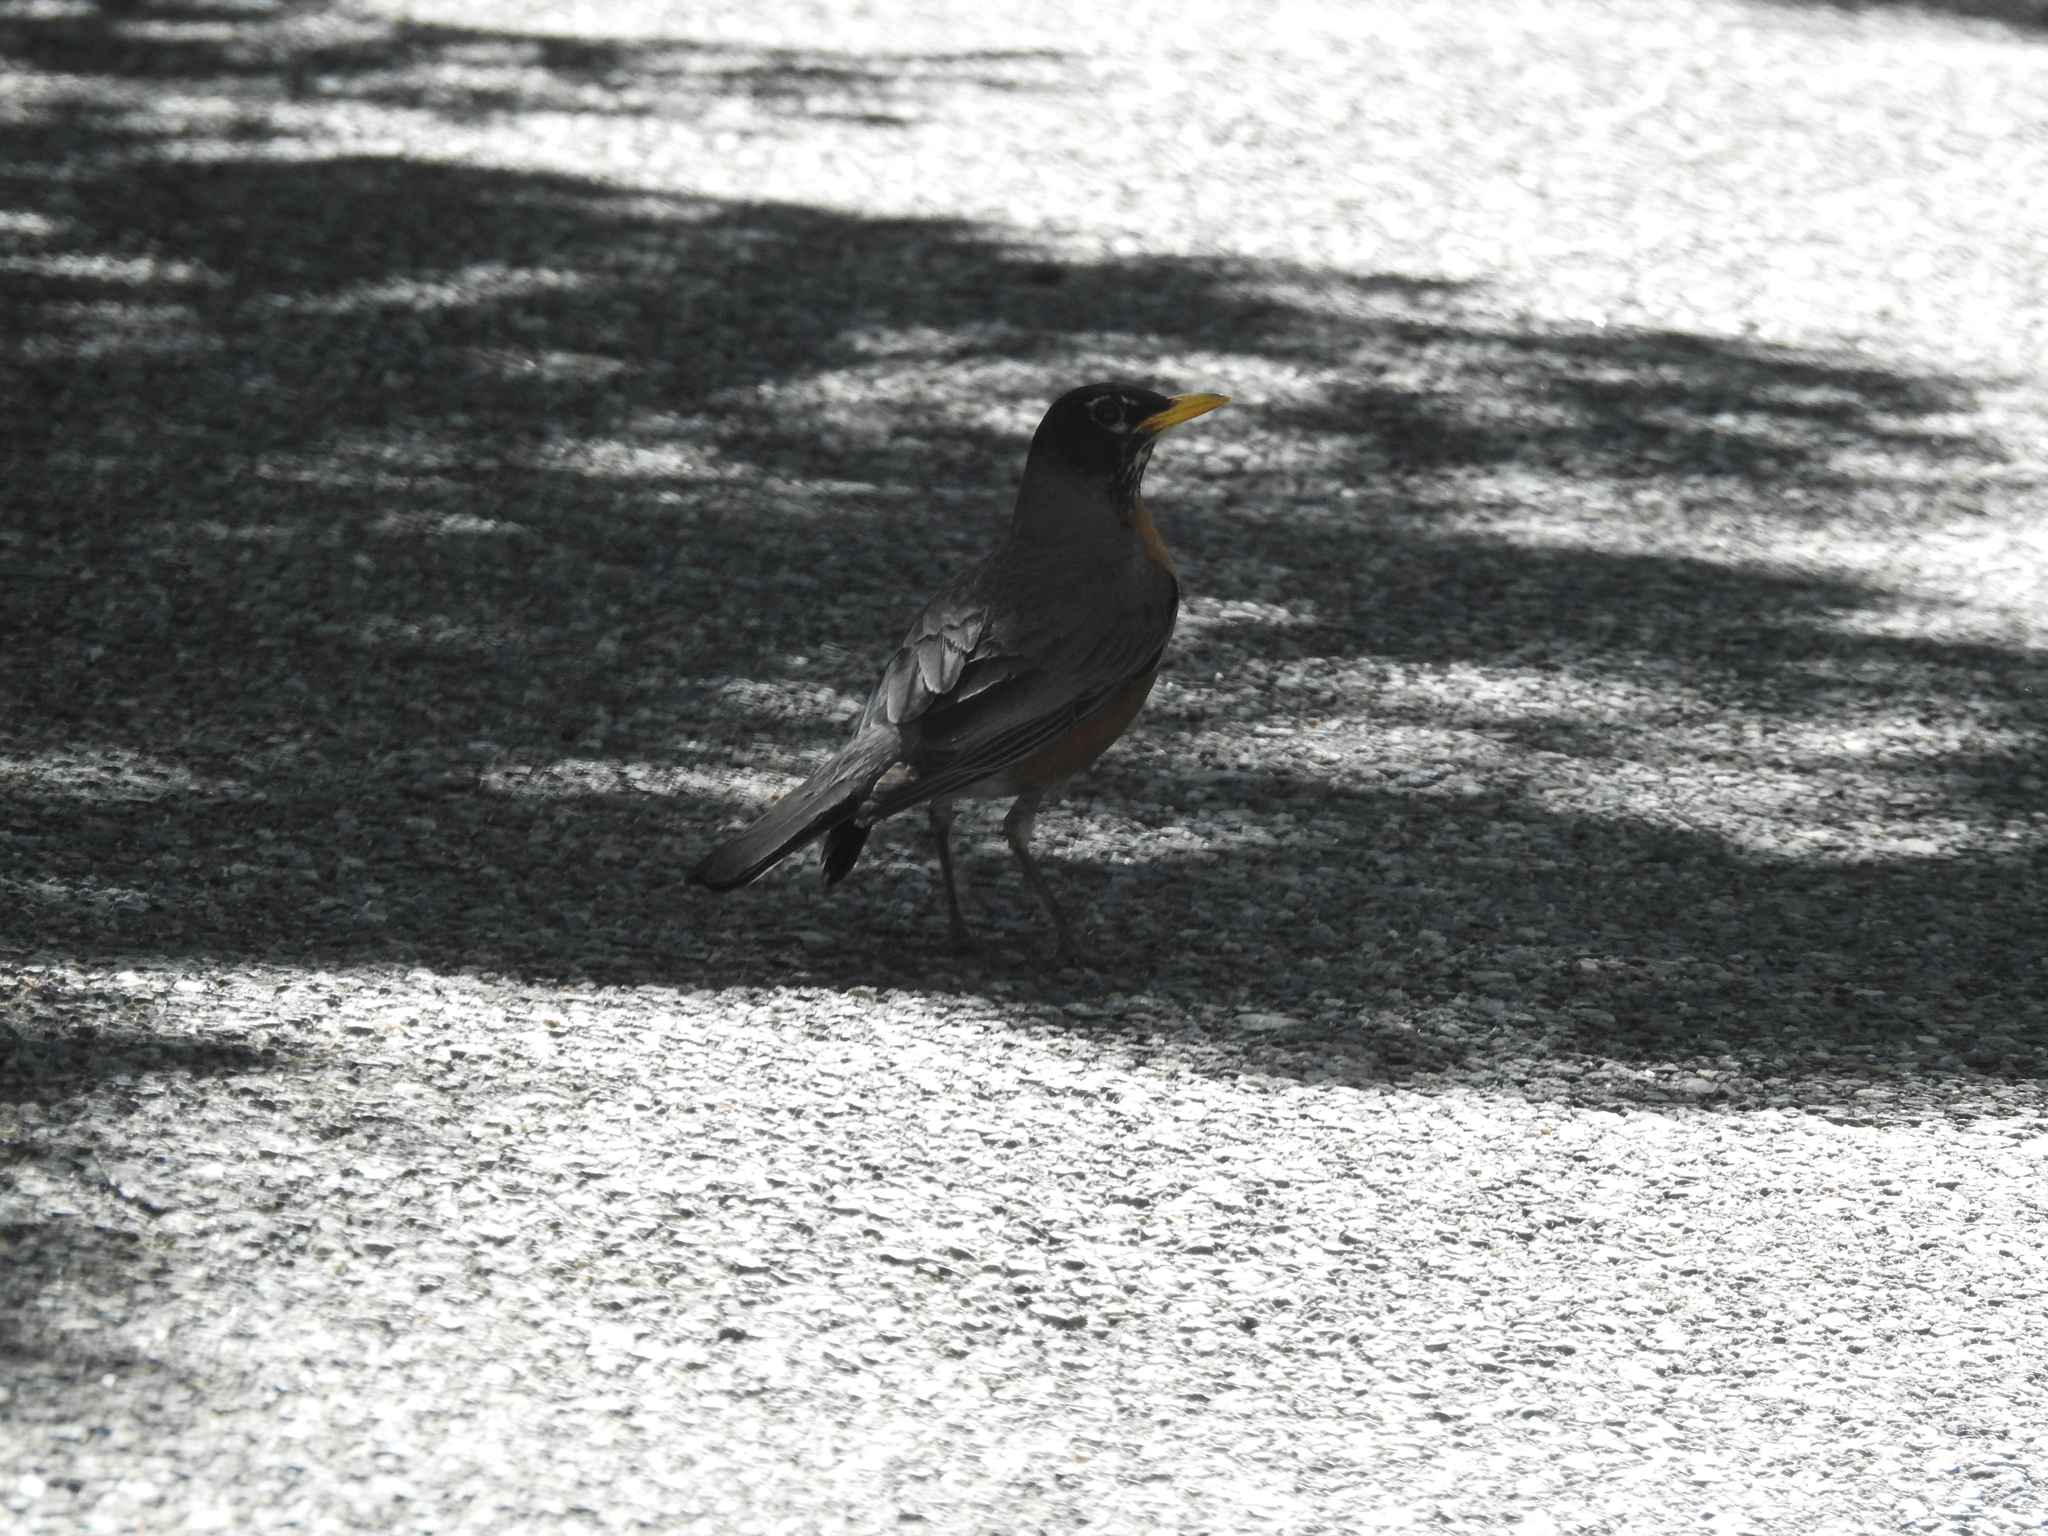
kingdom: Animalia
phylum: Chordata
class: Aves
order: Passeriformes
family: Turdidae
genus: Turdus
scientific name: Turdus migratorius
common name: American robin
